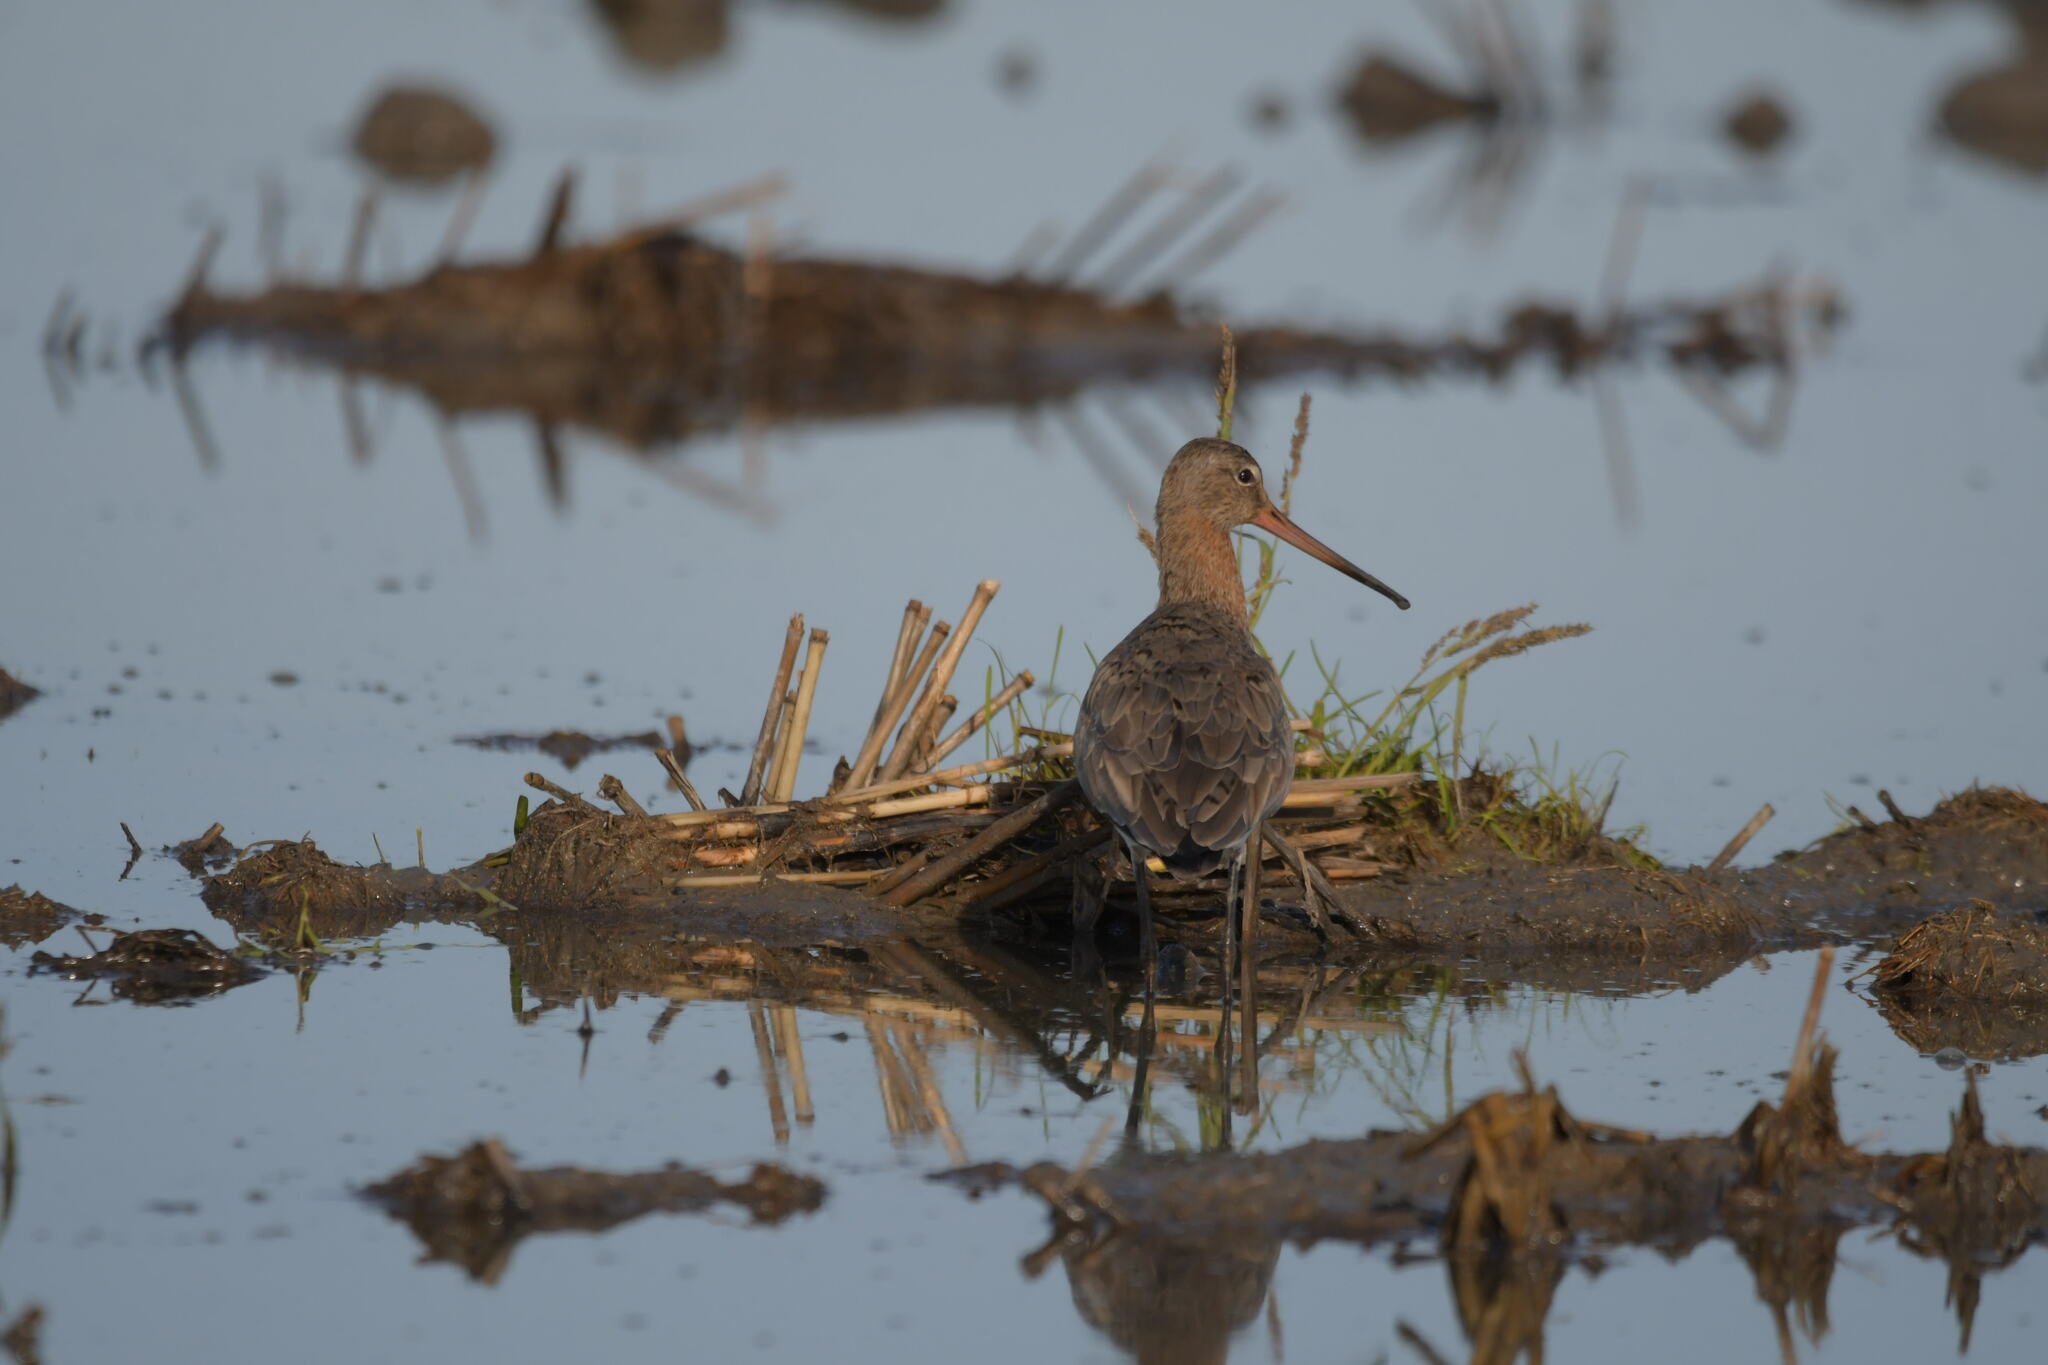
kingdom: Animalia
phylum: Chordata
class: Aves
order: Charadriiformes
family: Scolopacidae
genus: Limosa
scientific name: Limosa limosa
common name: Black-tailed godwit
